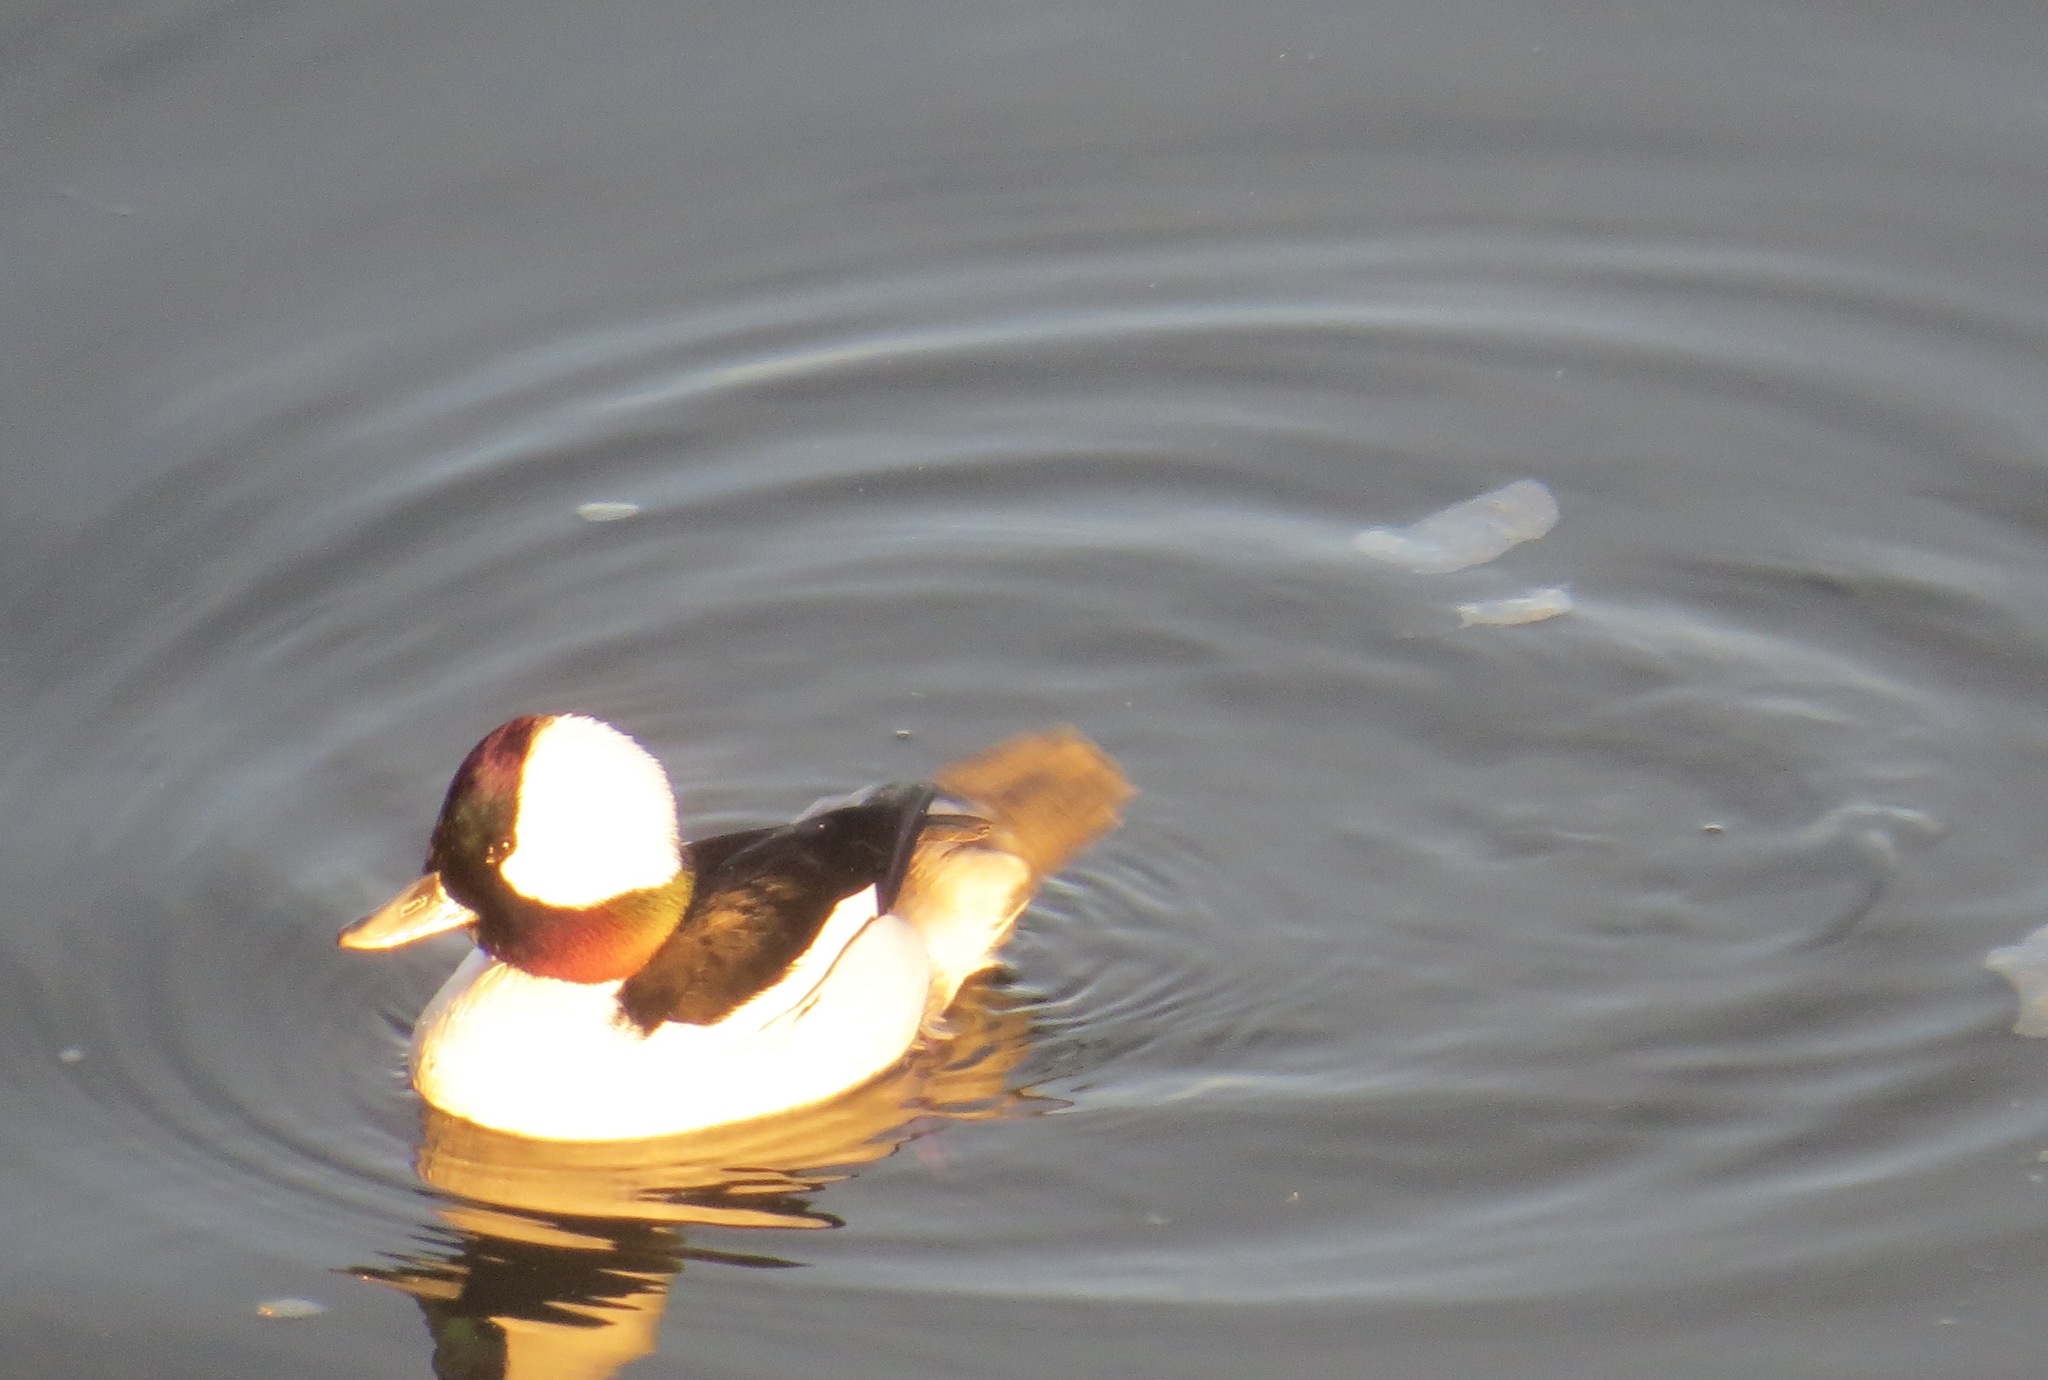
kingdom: Animalia
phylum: Chordata
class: Aves
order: Anseriformes
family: Anatidae
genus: Bucephala
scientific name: Bucephala albeola
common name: Bufflehead
